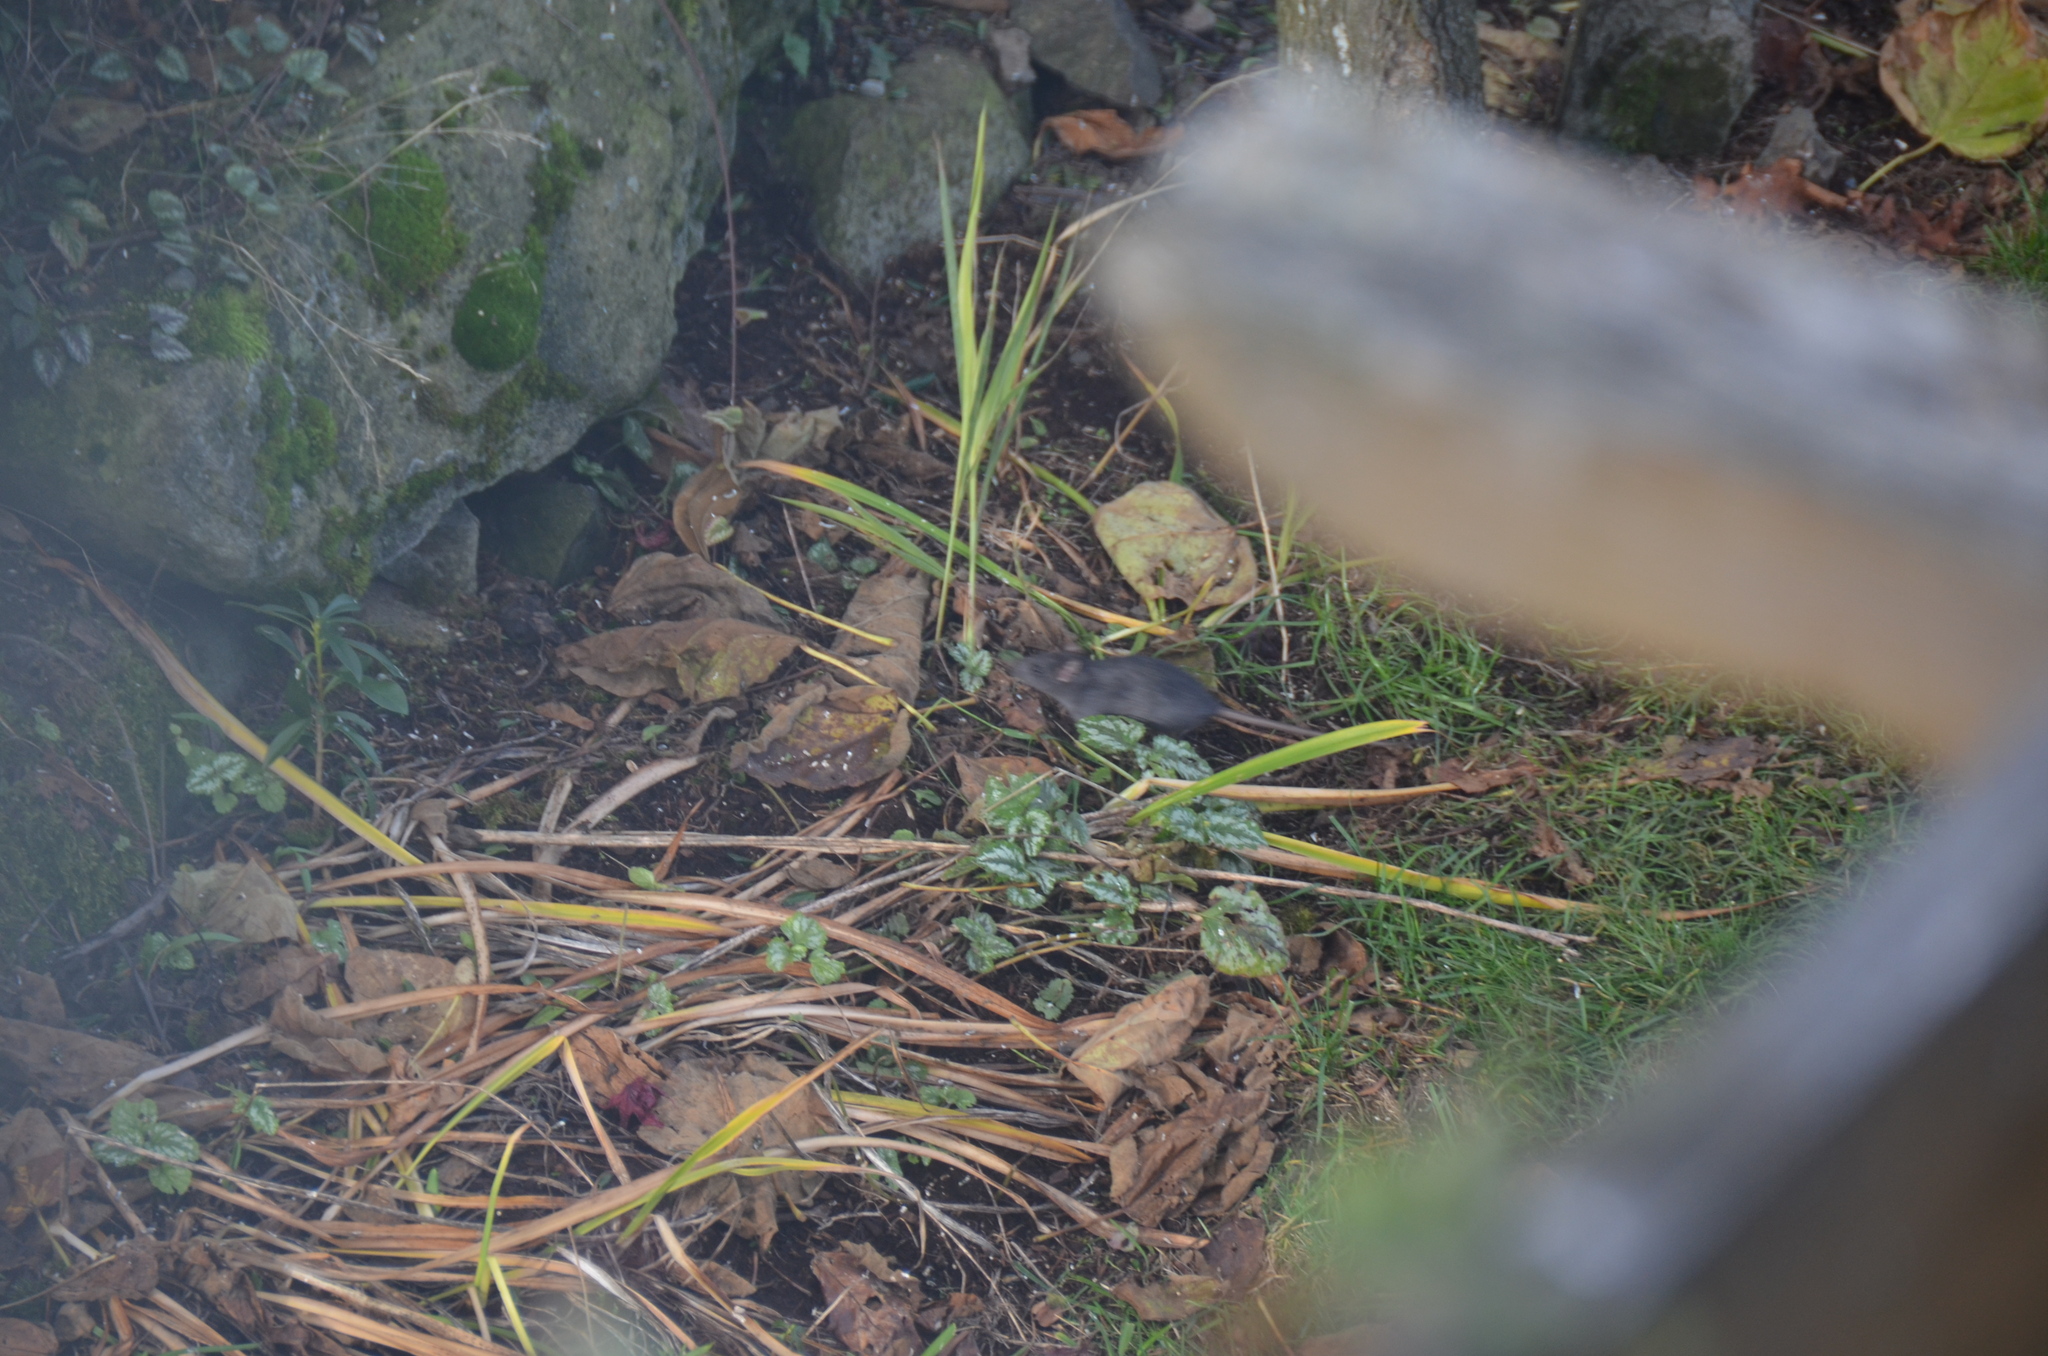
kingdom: Animalia
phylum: Chordata
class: Mammalia
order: Rodentia
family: Muridae
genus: Rattus
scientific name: Rattus rattus
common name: Black rat
